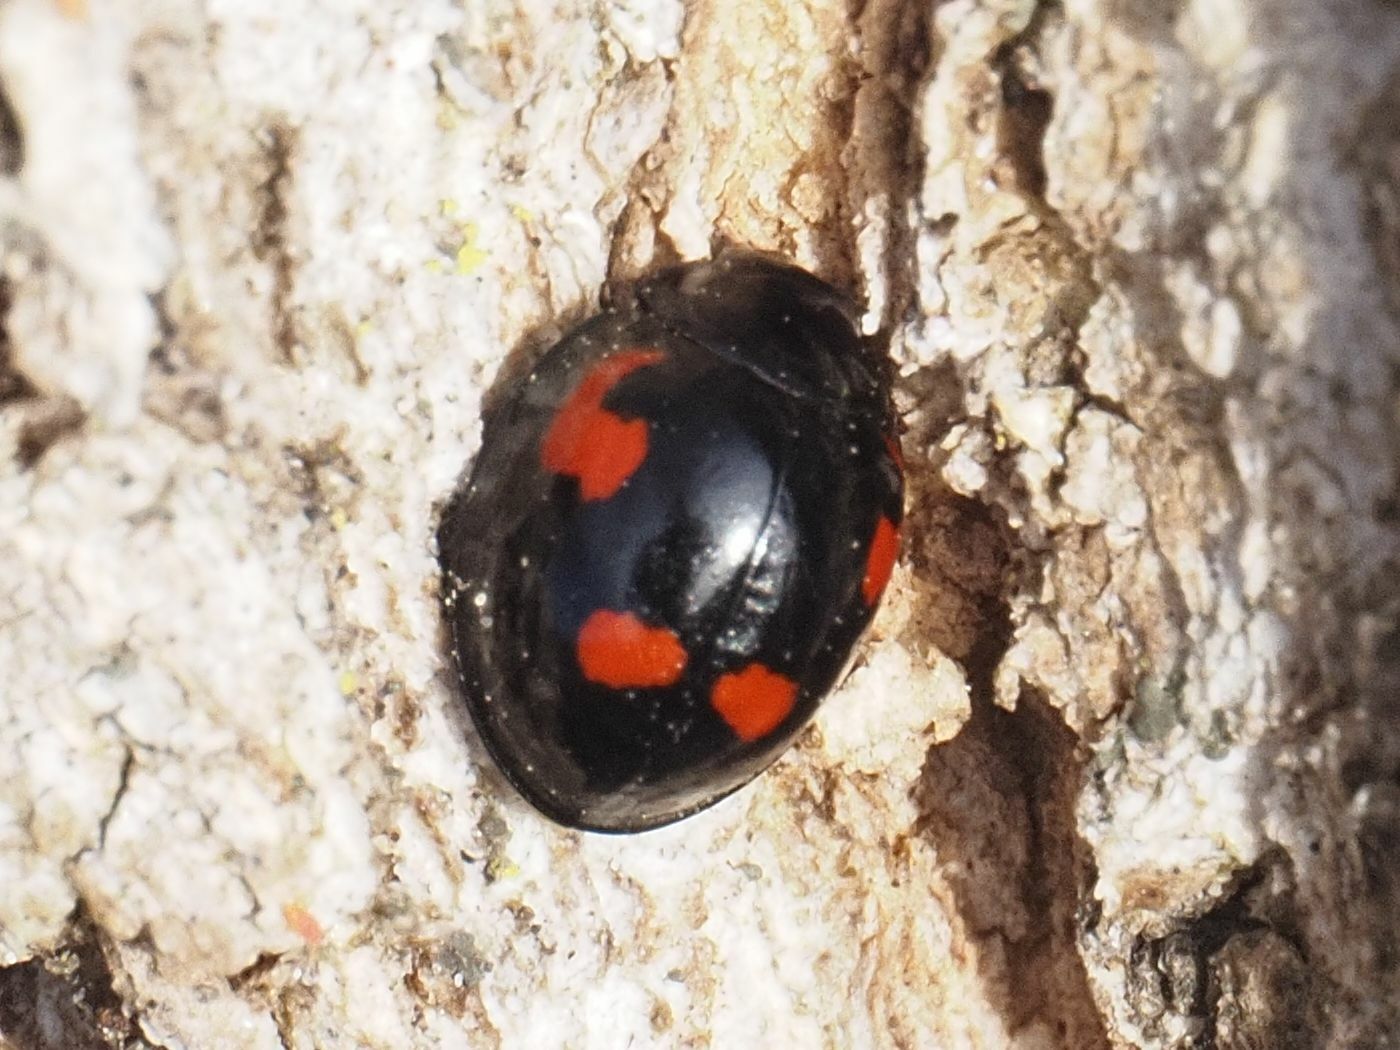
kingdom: Animalia
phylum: Arthropoda
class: Insecta
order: Coleoptera
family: Coccinellidae
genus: Brumus
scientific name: Brumus quadripustulatus
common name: Ladybird beetle
